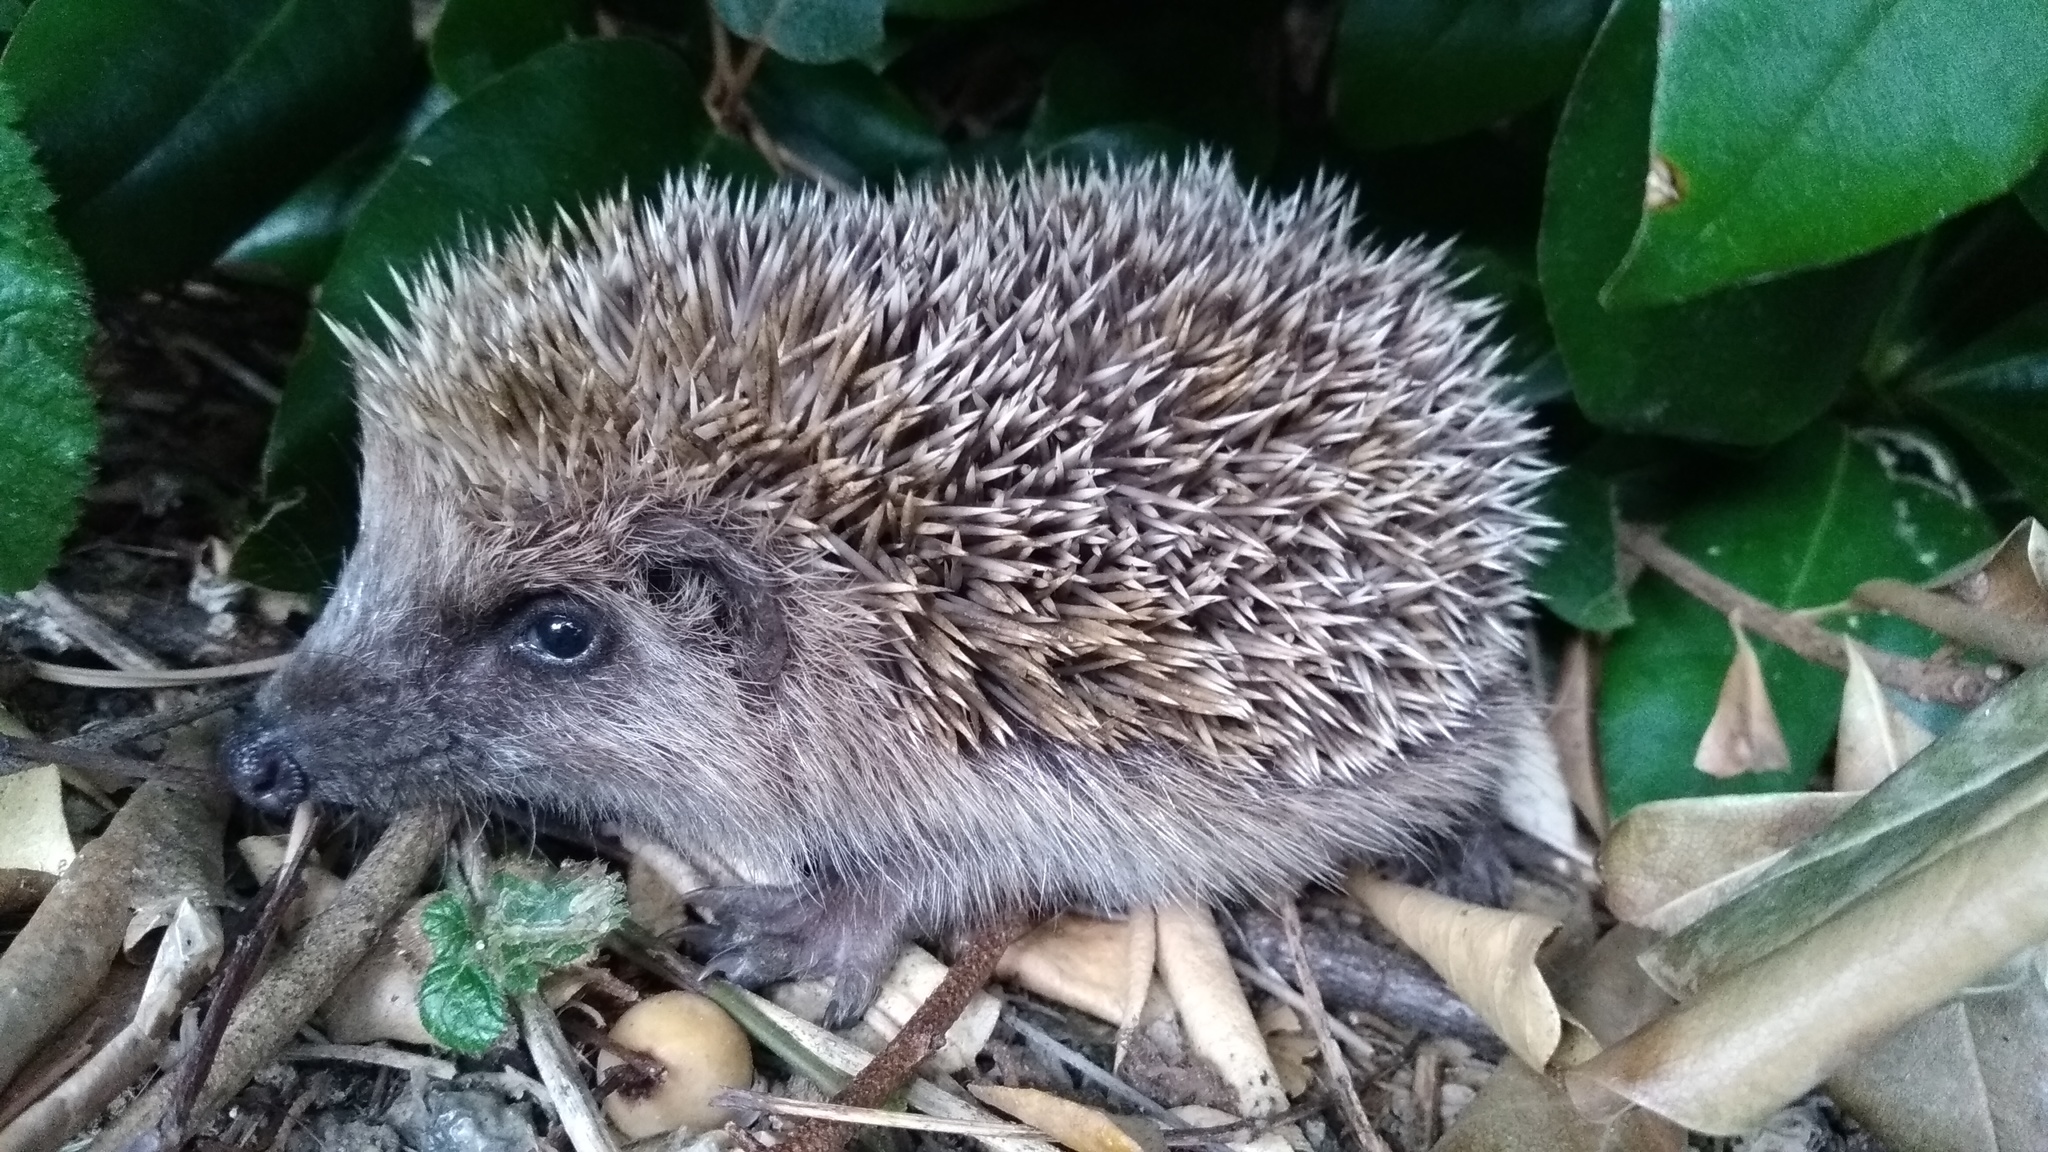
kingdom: Animalia
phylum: Chordata
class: Mammalia
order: Erinaceomorpha
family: Erinaceidae
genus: Erinaceus
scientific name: Erinaceus europaeus
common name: West european hedgehog
